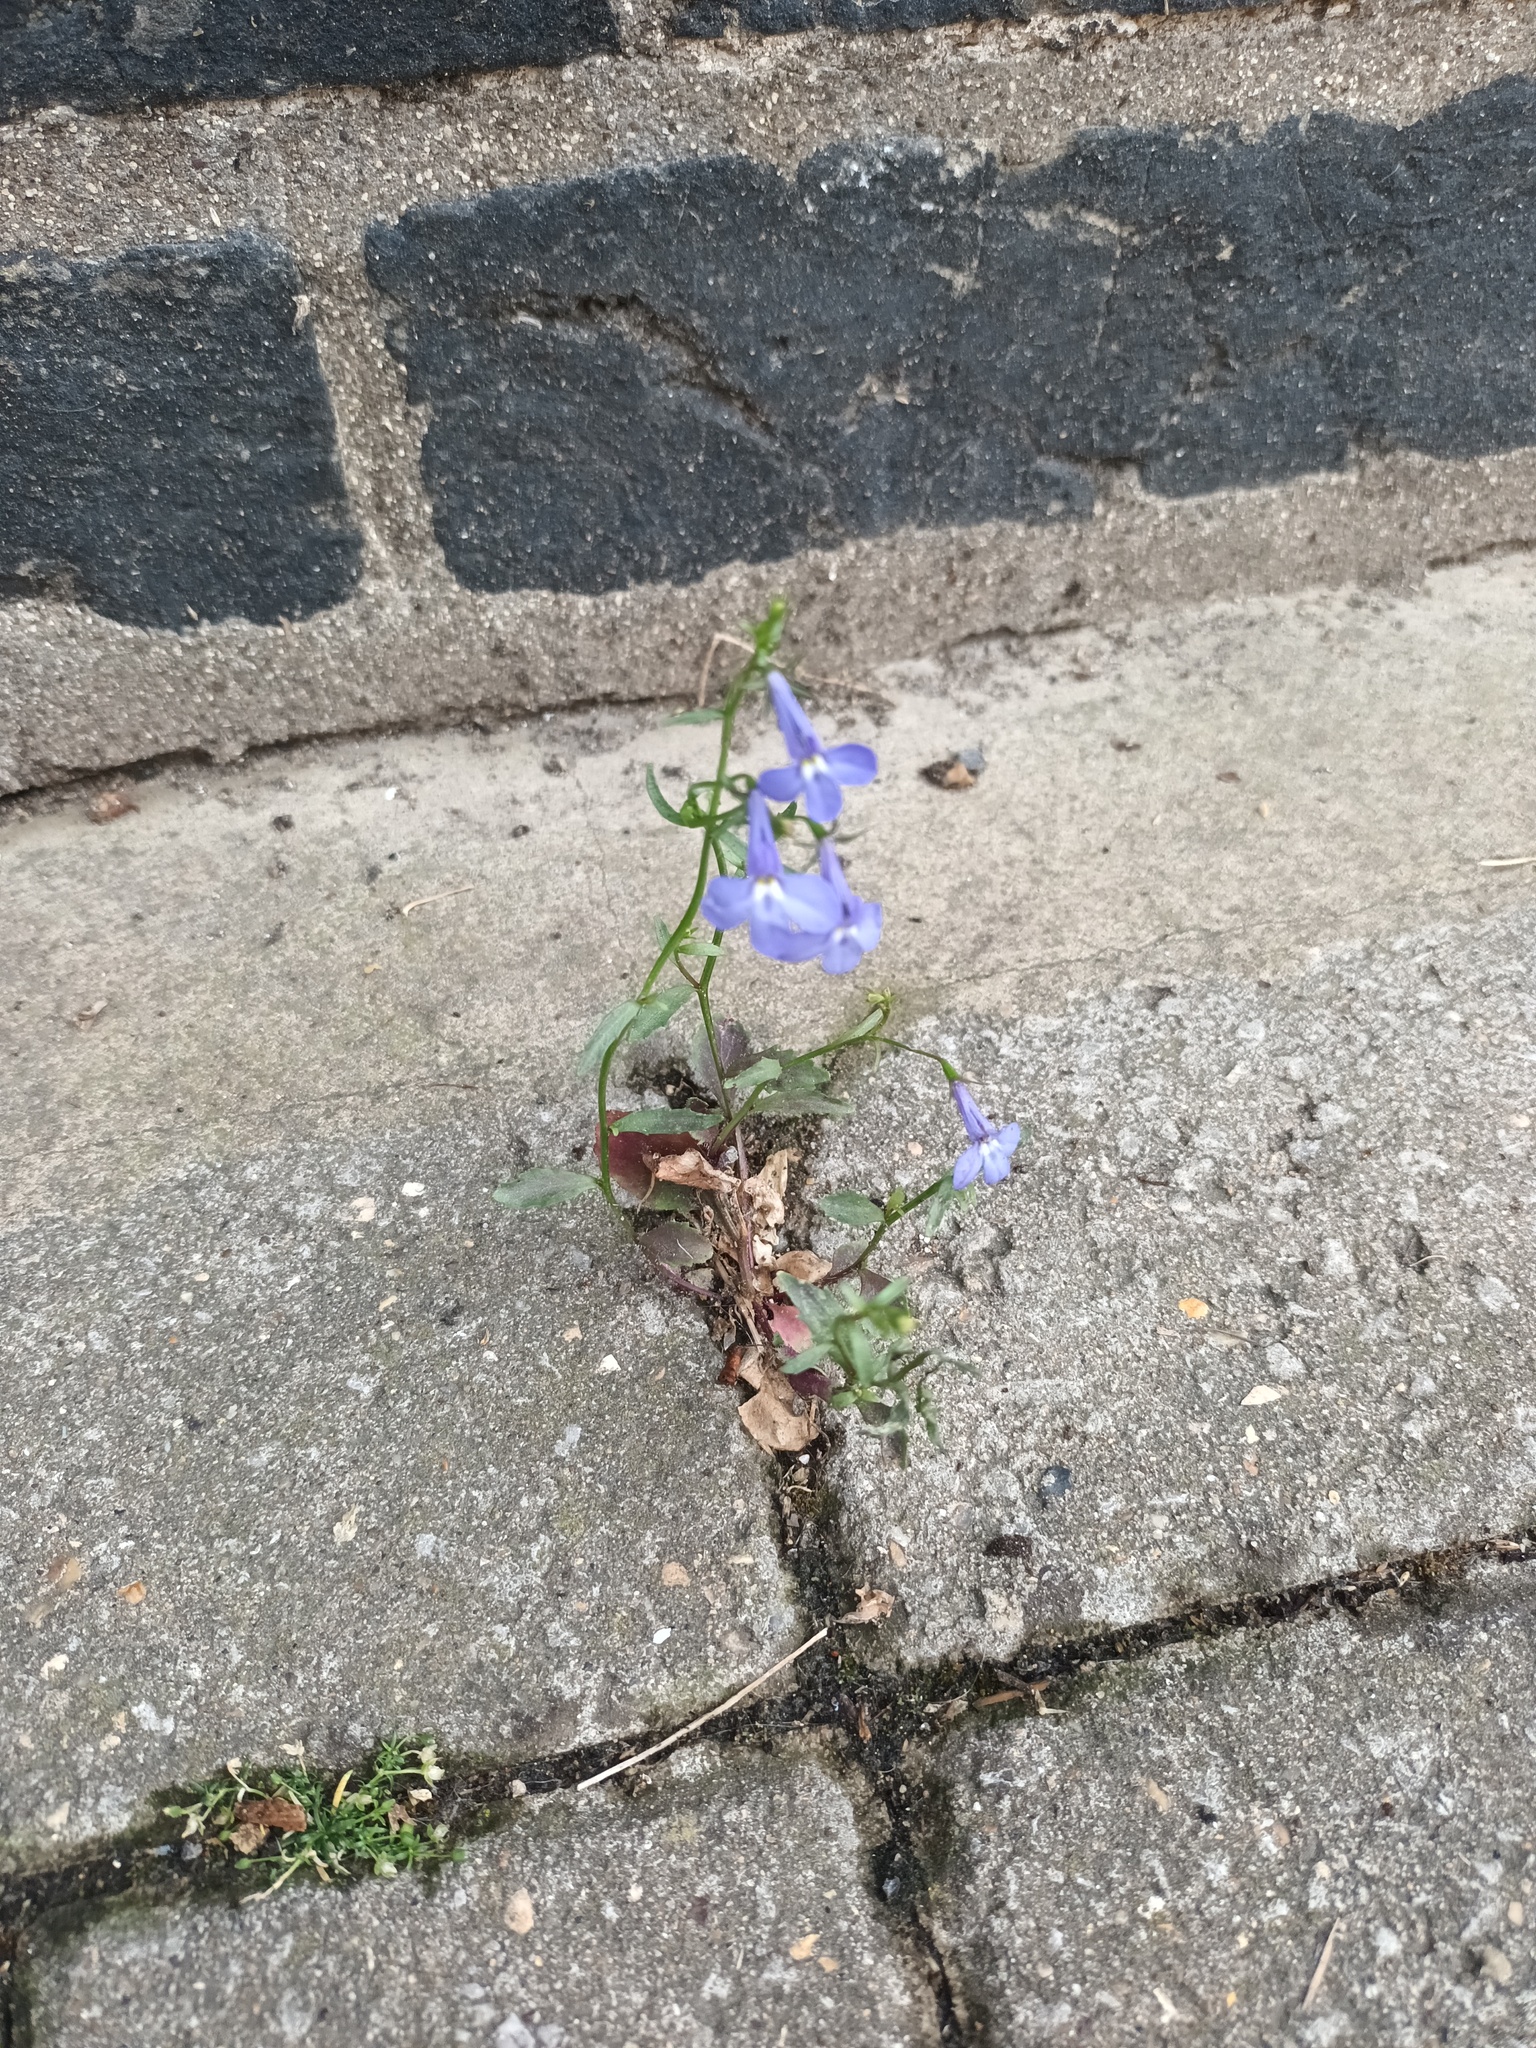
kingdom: Plantae
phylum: Tracheophyta
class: Magnoliopsida
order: Asterales
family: Campanulaceae
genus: Lobelia
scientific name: Lobelia erinus
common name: Edging lobelia
